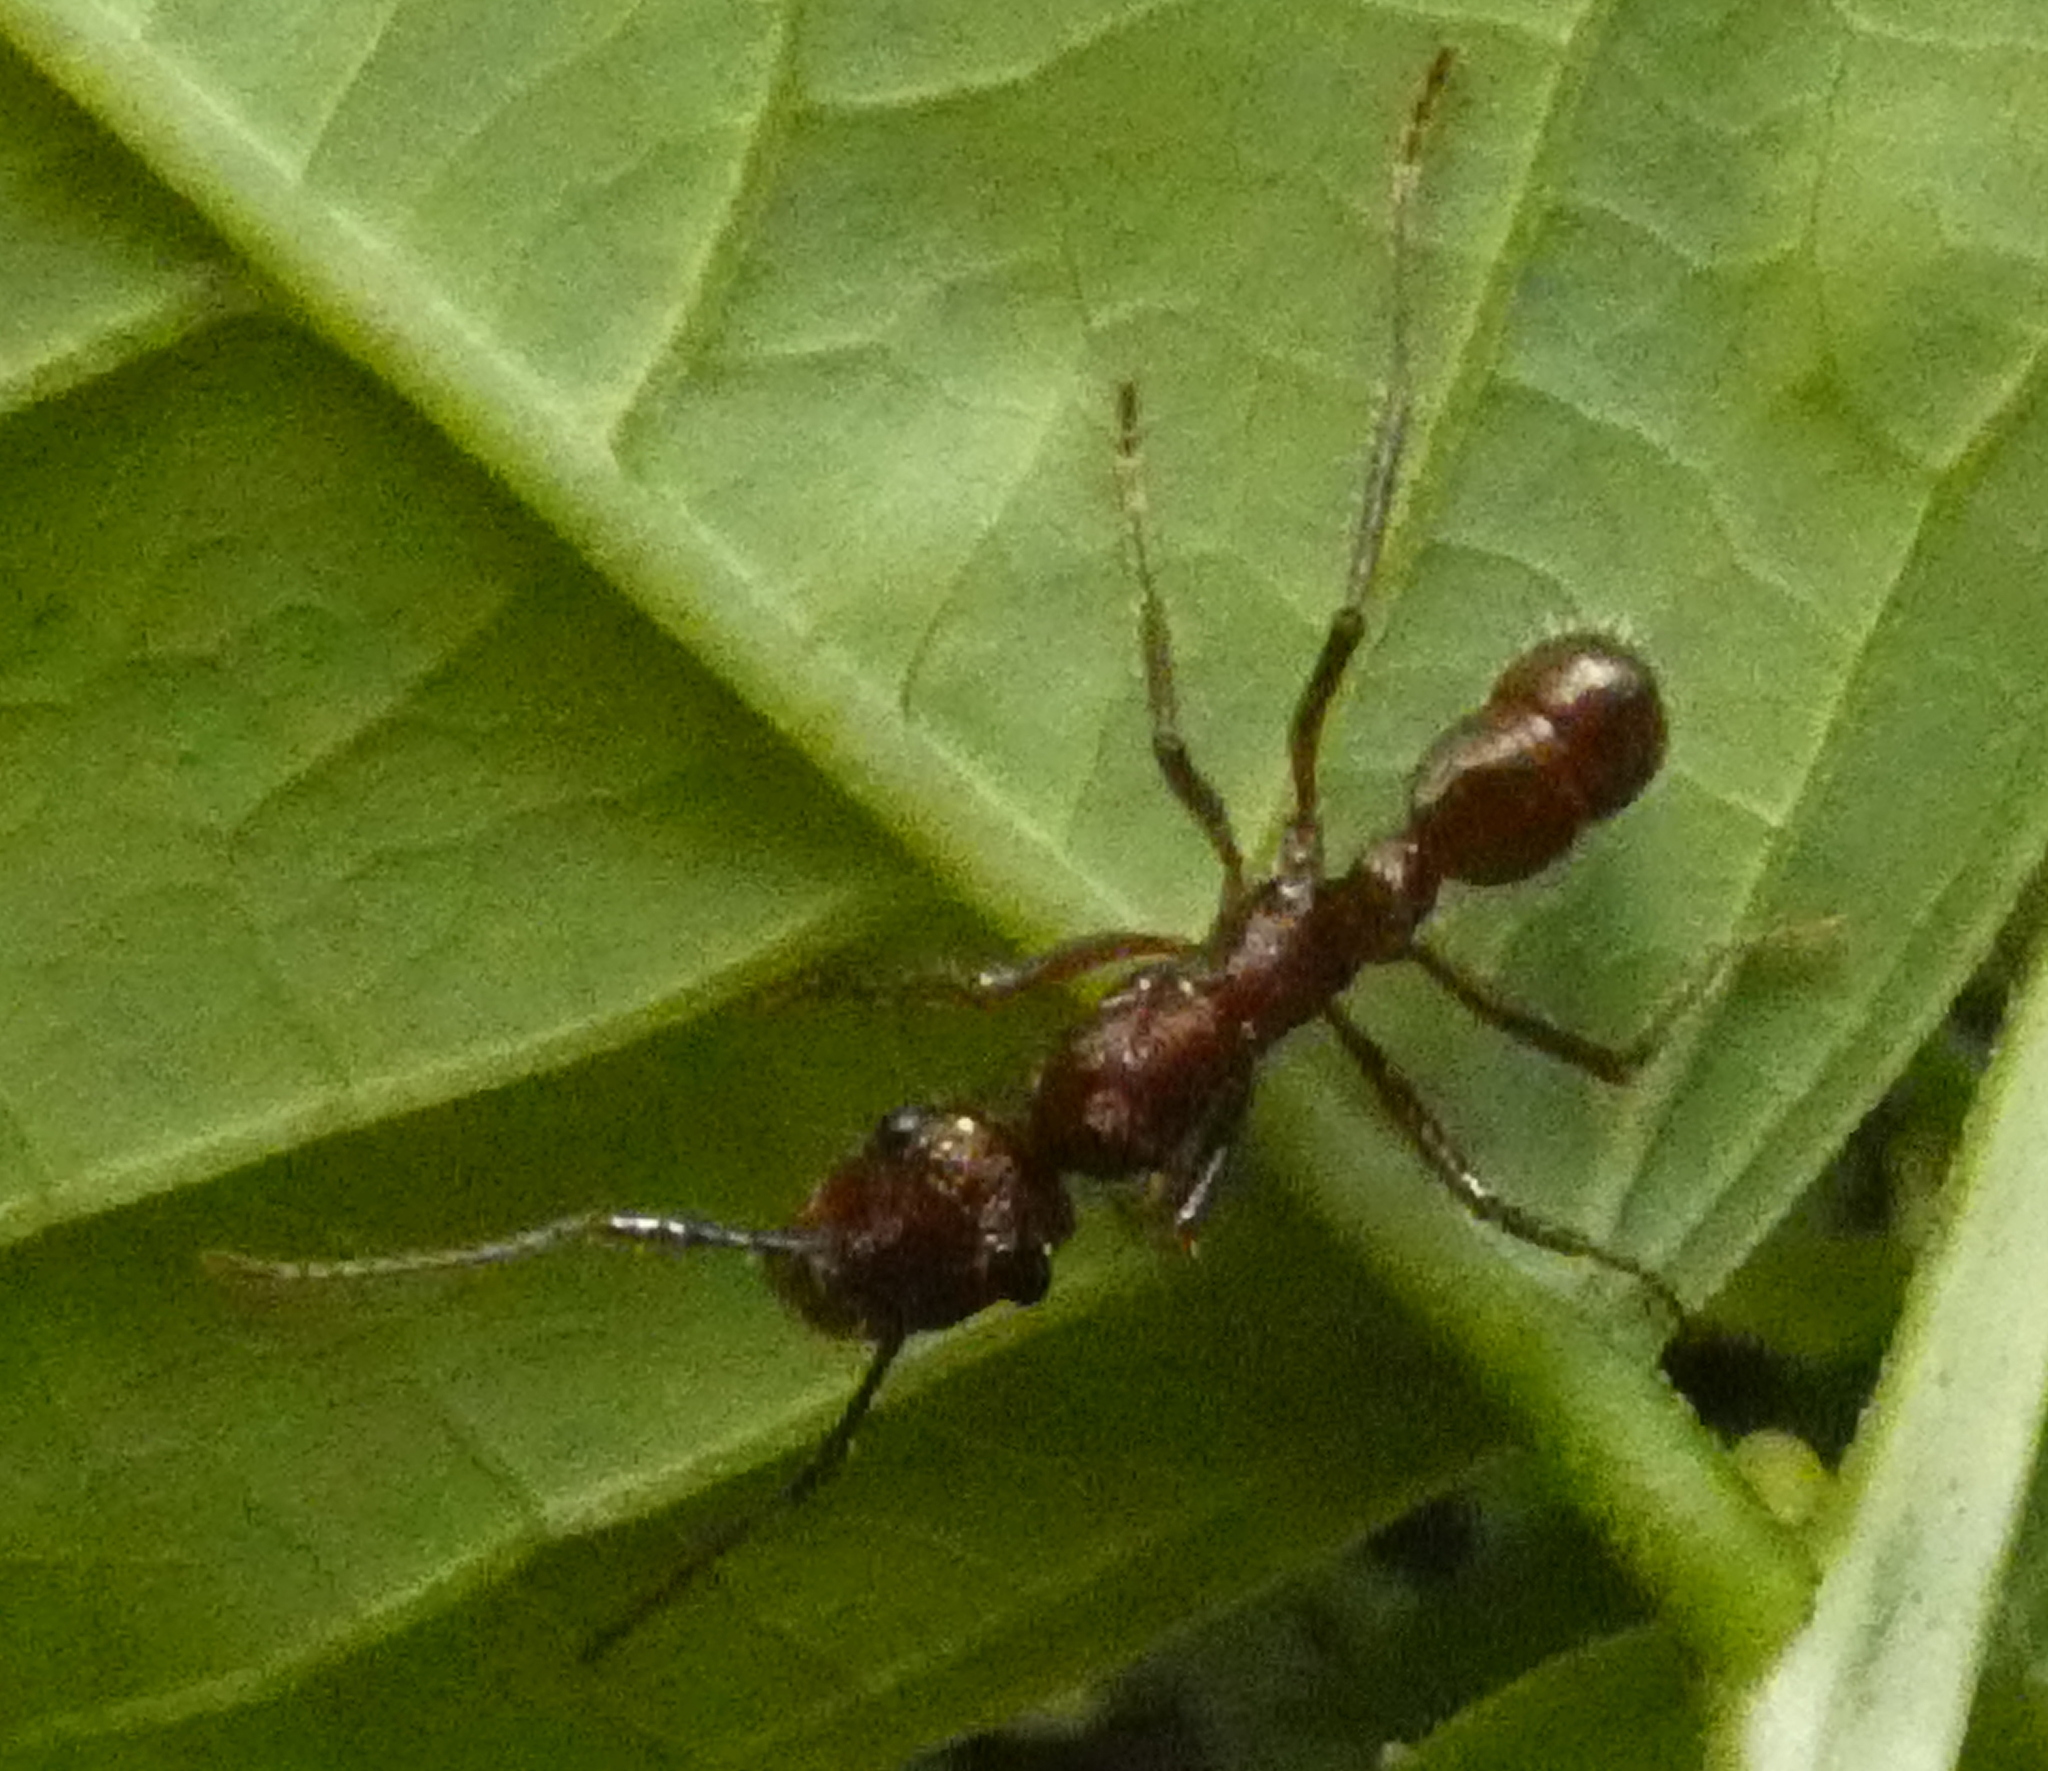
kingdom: Animalia
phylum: Arthropoda
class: Insecta
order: Hymenoptera
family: Formicidae
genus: Ectatomma
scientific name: Ectatomma tuberculatum
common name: Ant
